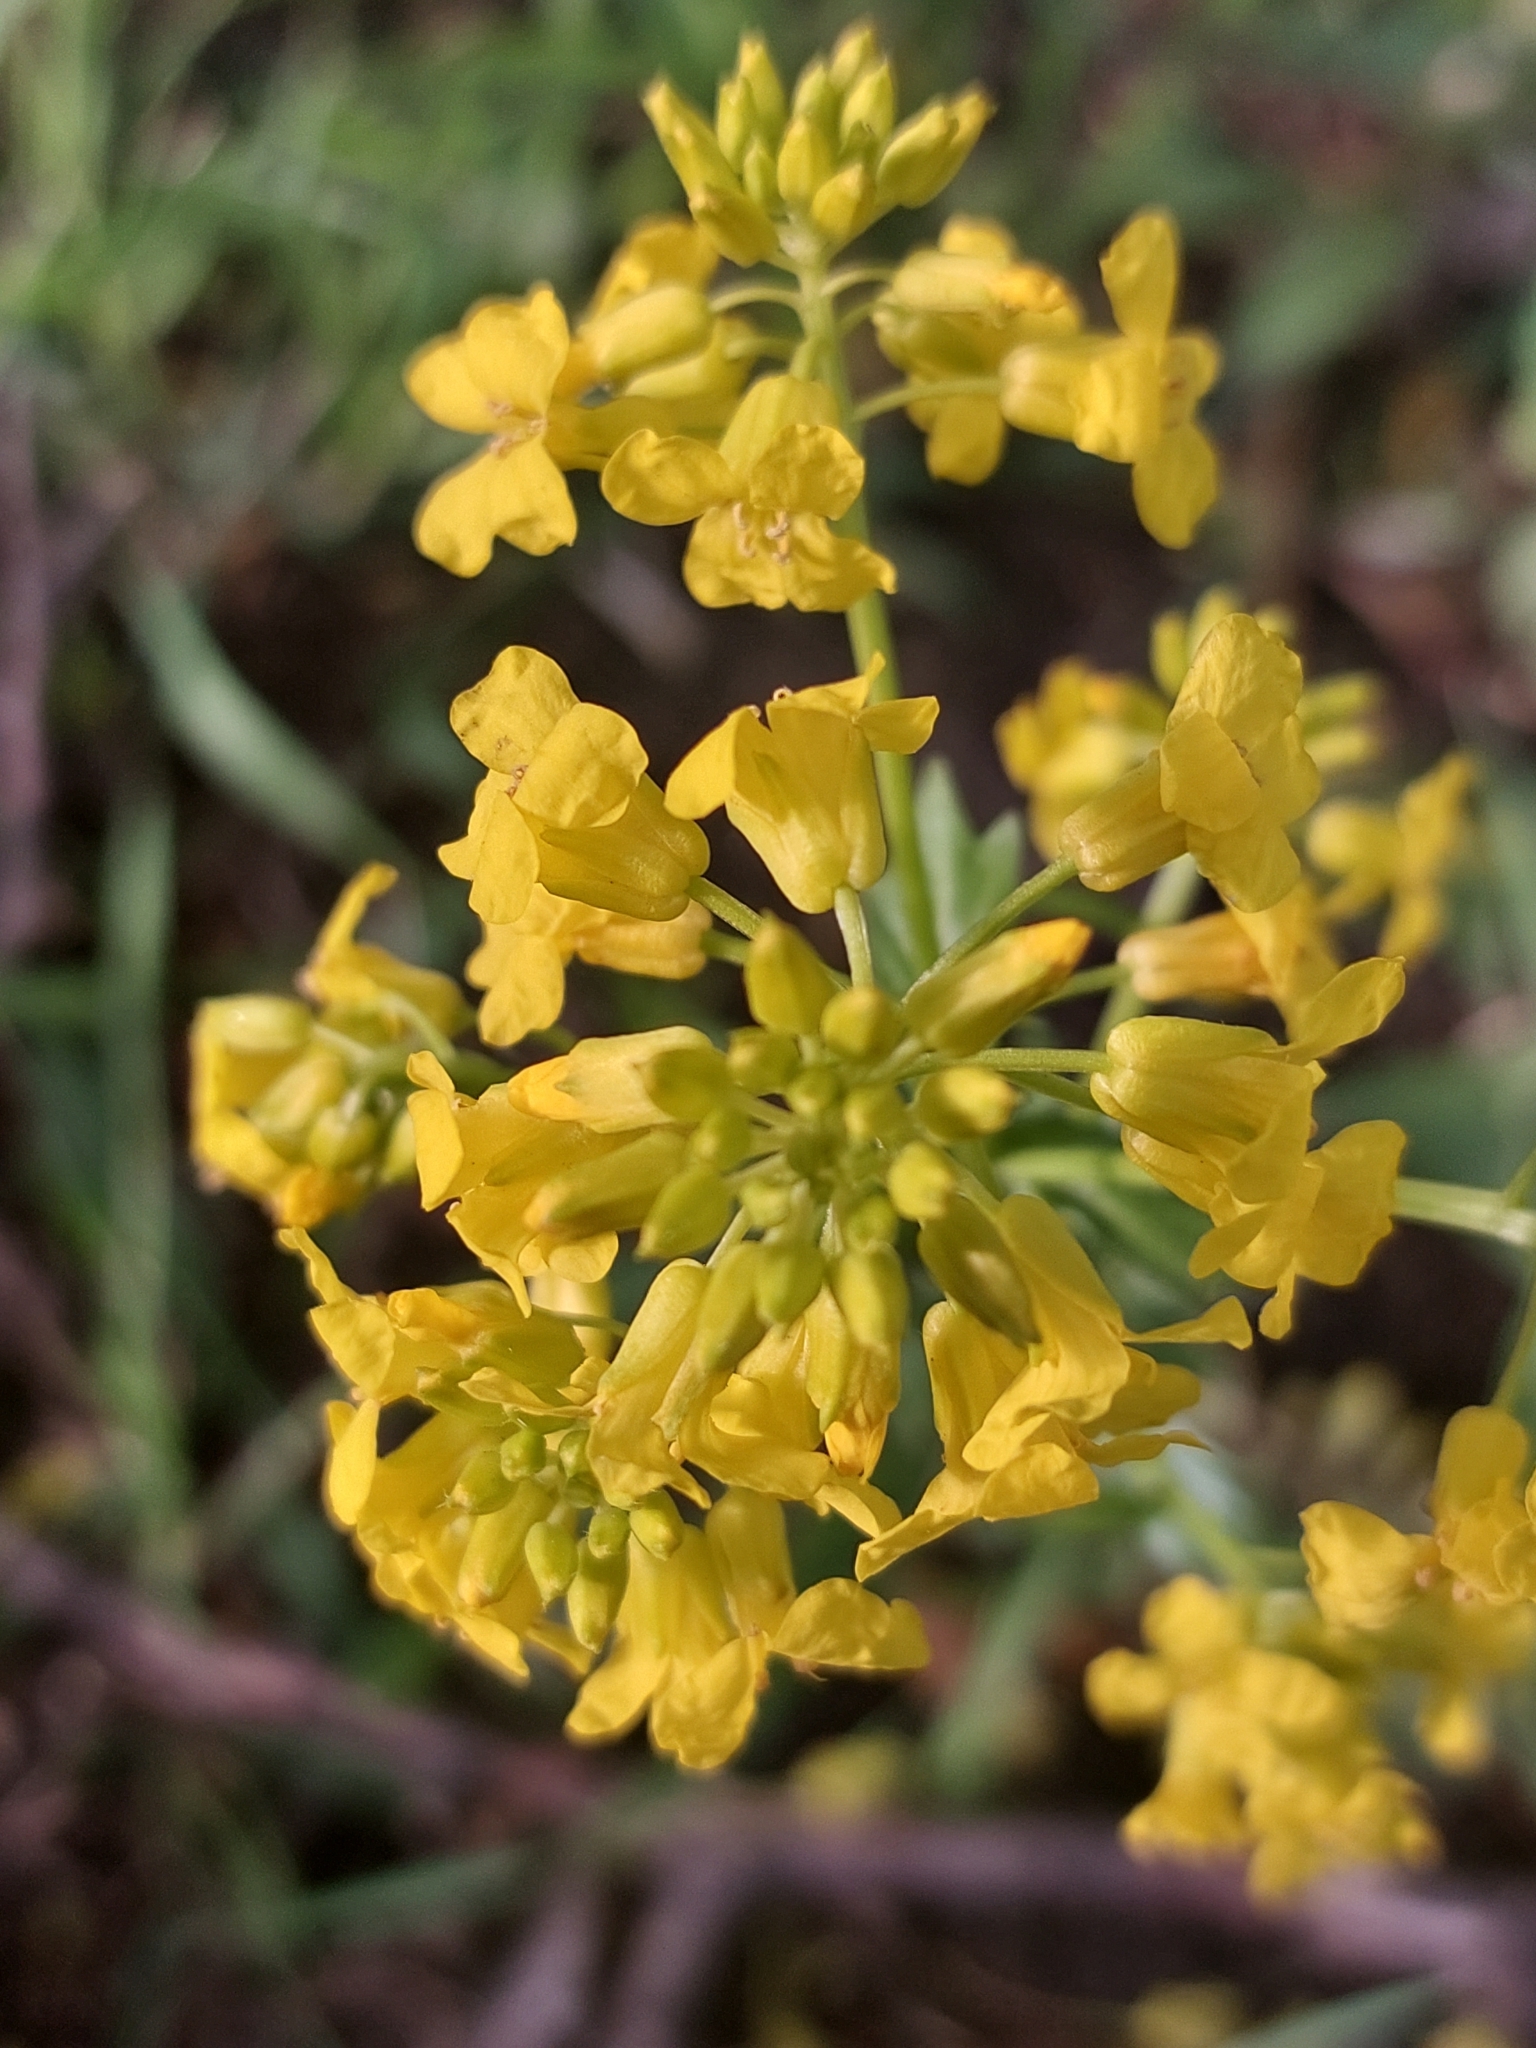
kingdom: Plantae
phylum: Tracheophyta
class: Magnoliopsida
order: Brassicales
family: Brassicaceae
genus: Barbarea
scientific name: Barbarea vulgaris
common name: Cressy-greens
